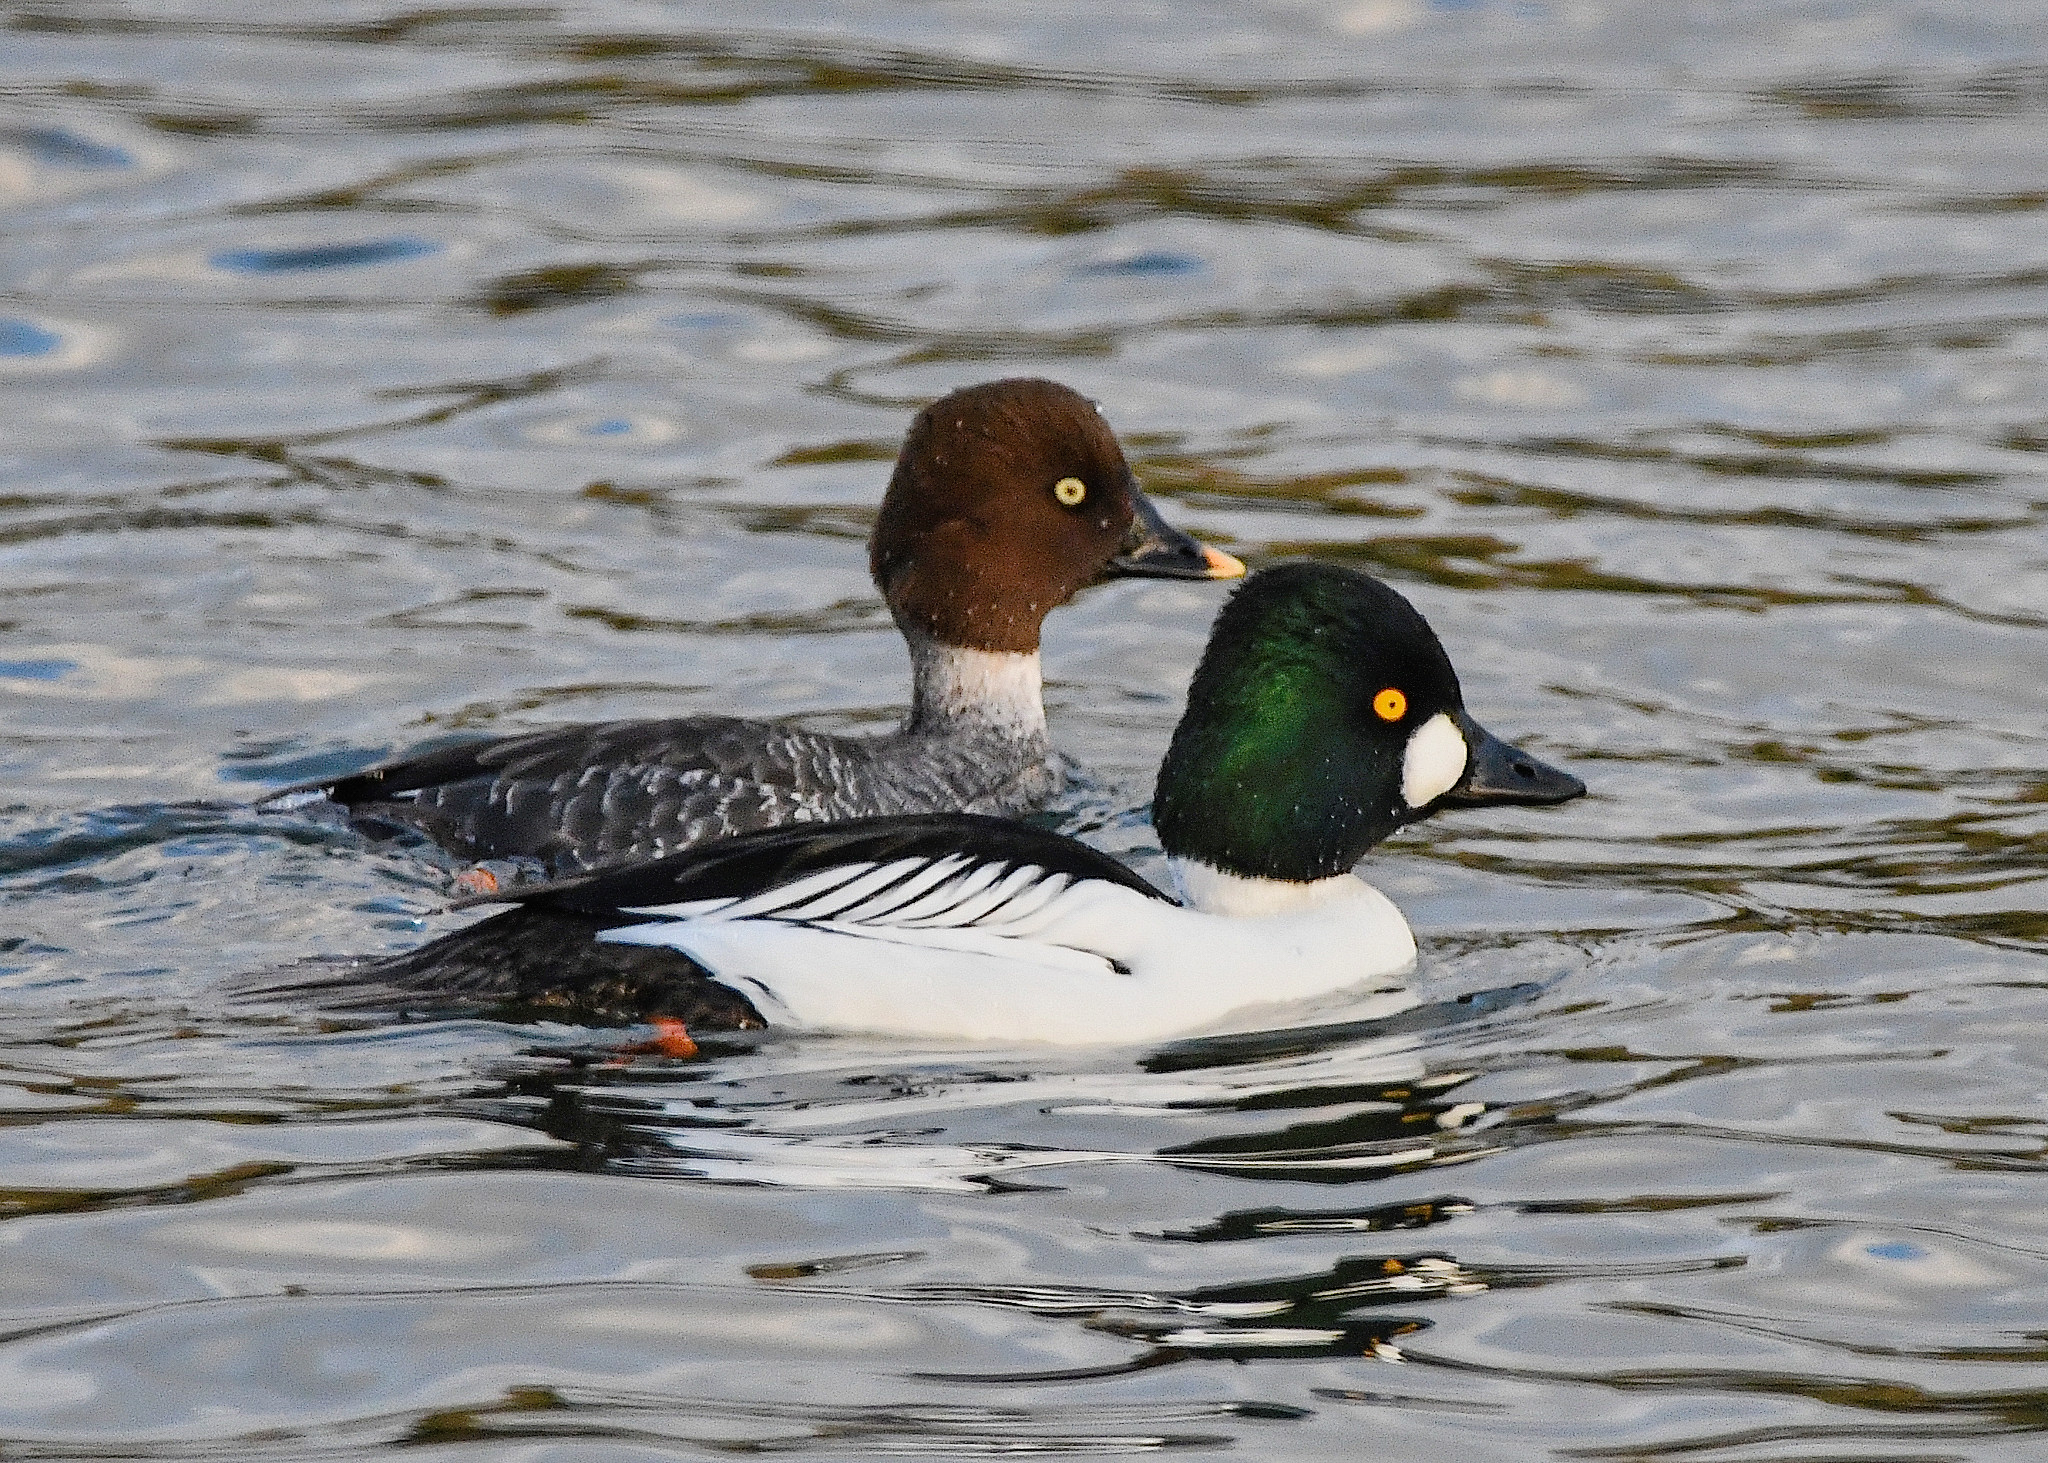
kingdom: Animalia
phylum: Chordata
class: Aves
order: Anseriformes
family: Anatidae
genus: Bucephala
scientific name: Bucephala clangula
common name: Common goldeneye
